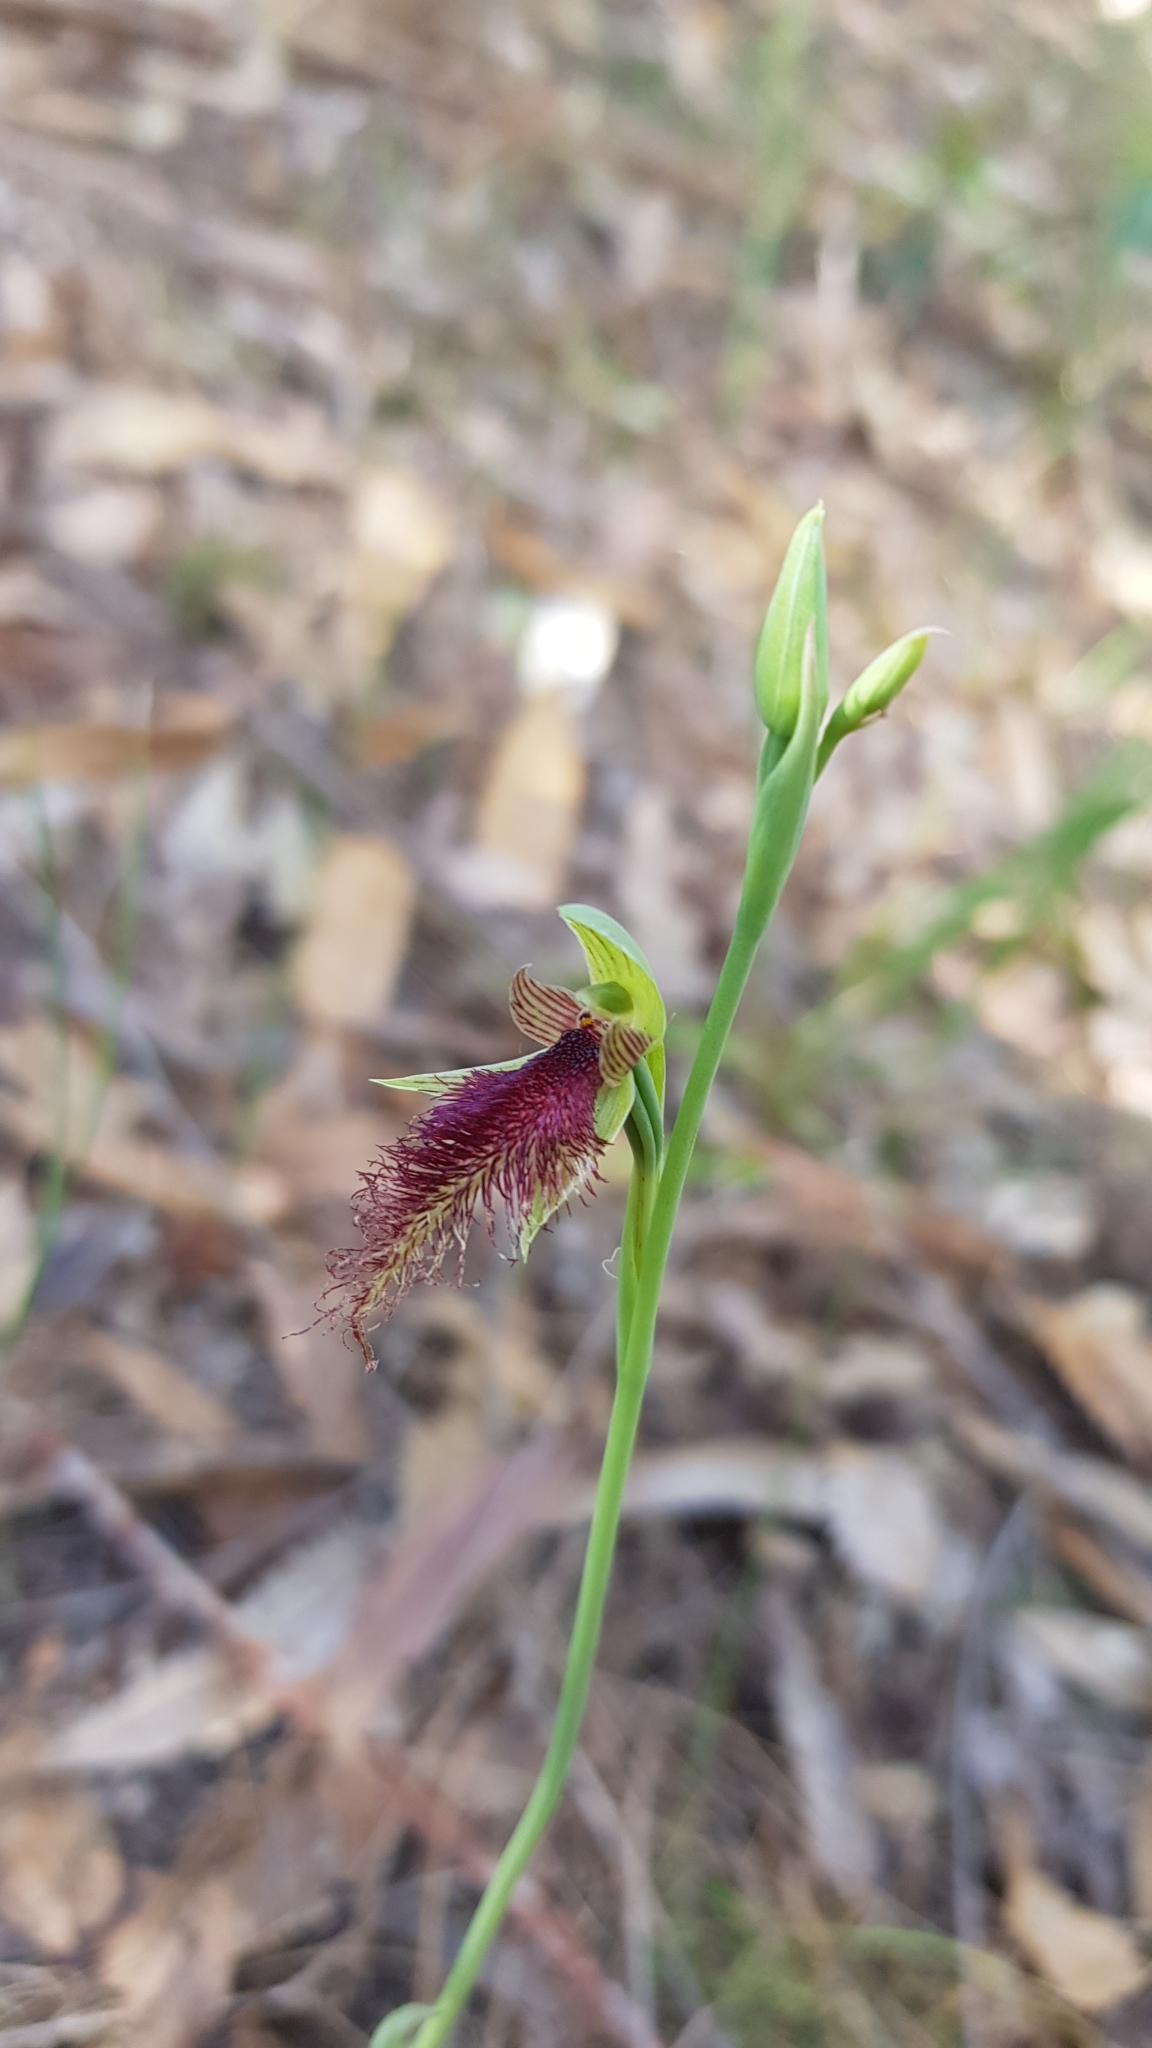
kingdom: Plantae
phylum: Tracheophyta
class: Liliopsida
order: Asparagales
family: Orchidaceae
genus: Calochilus
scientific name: Calochilus robertsonii
